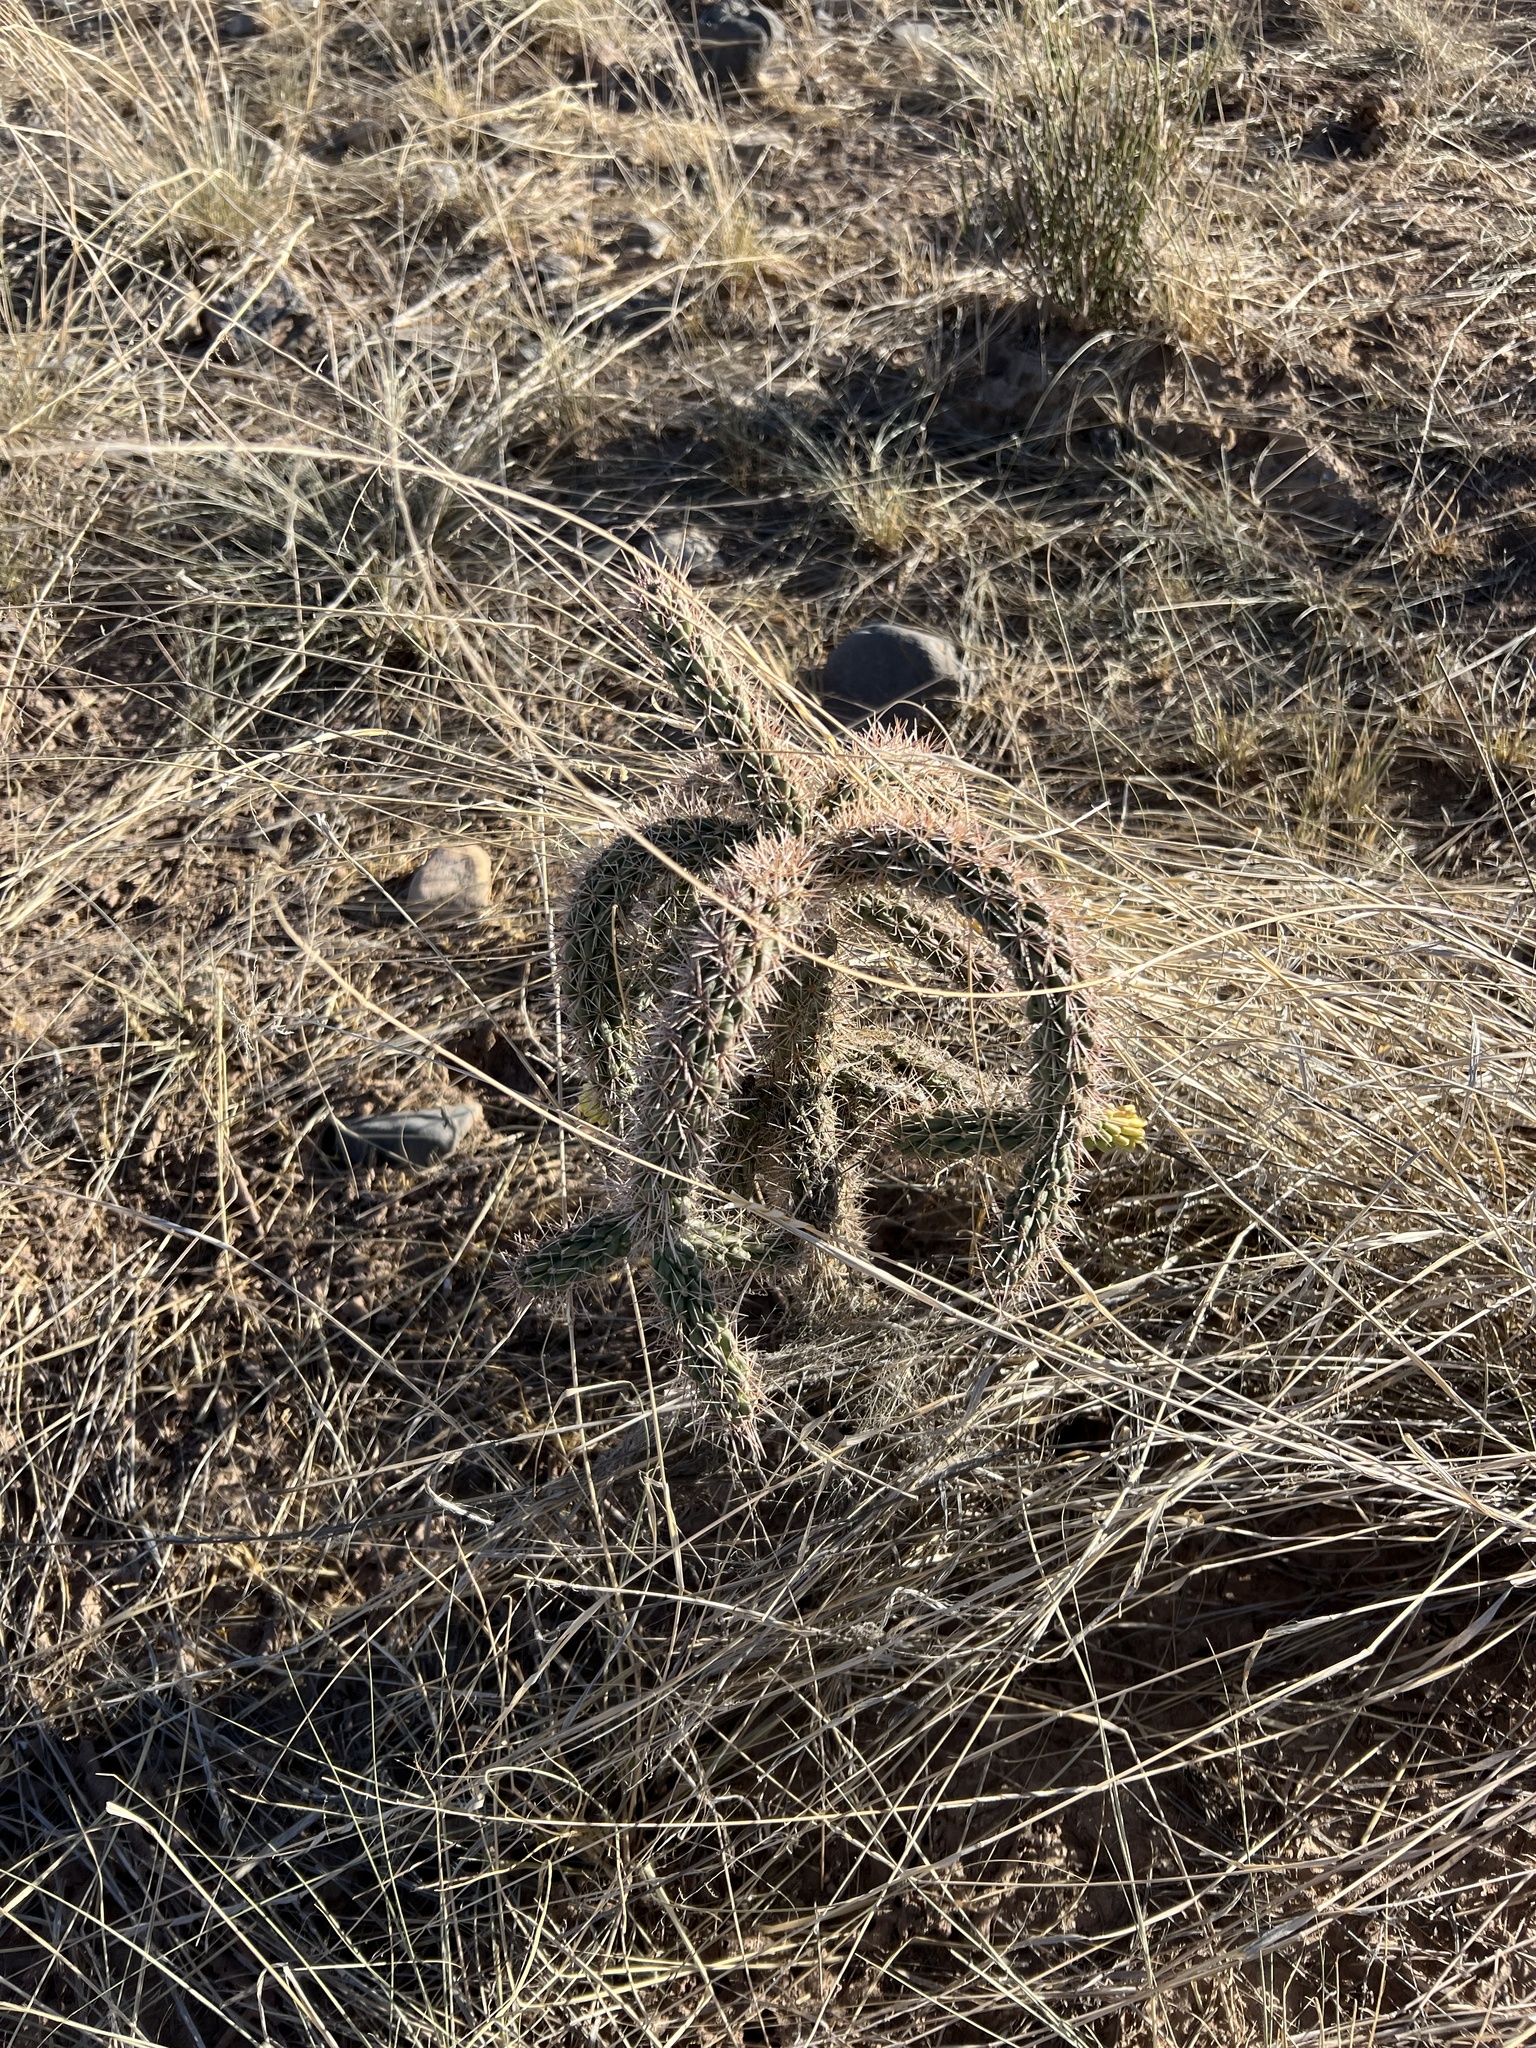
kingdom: Plantae
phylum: Tracheophyta
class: Magnoliopsida
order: Caryophyllales
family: Cactaceae
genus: Cylindropuntia
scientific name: Cylindropuntia imbricata
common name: Candelabrum cactus
